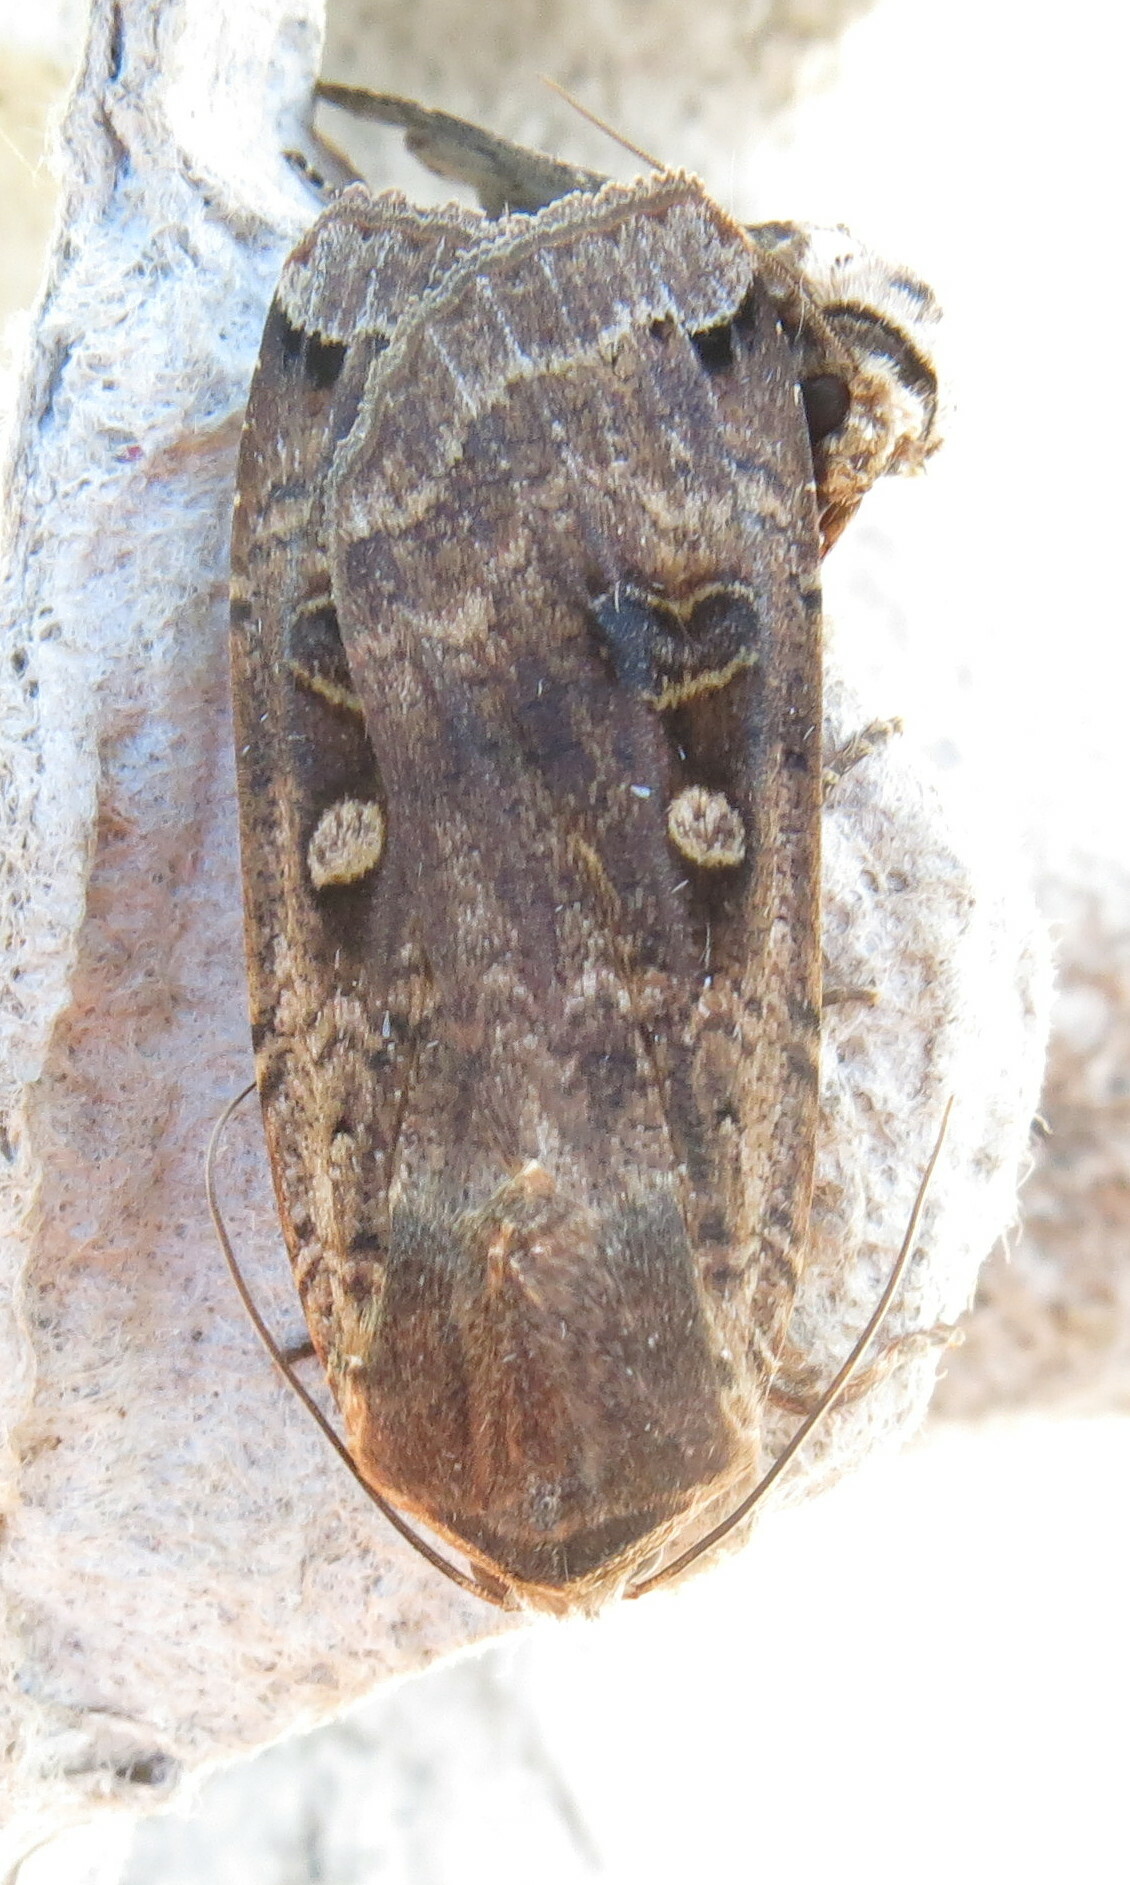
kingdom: Animalia
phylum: Arthropoda
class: Insecta
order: Lepidoptera
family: Noctuidae
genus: Noctua
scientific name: Noctua pronuba
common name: Large yellow underwing
